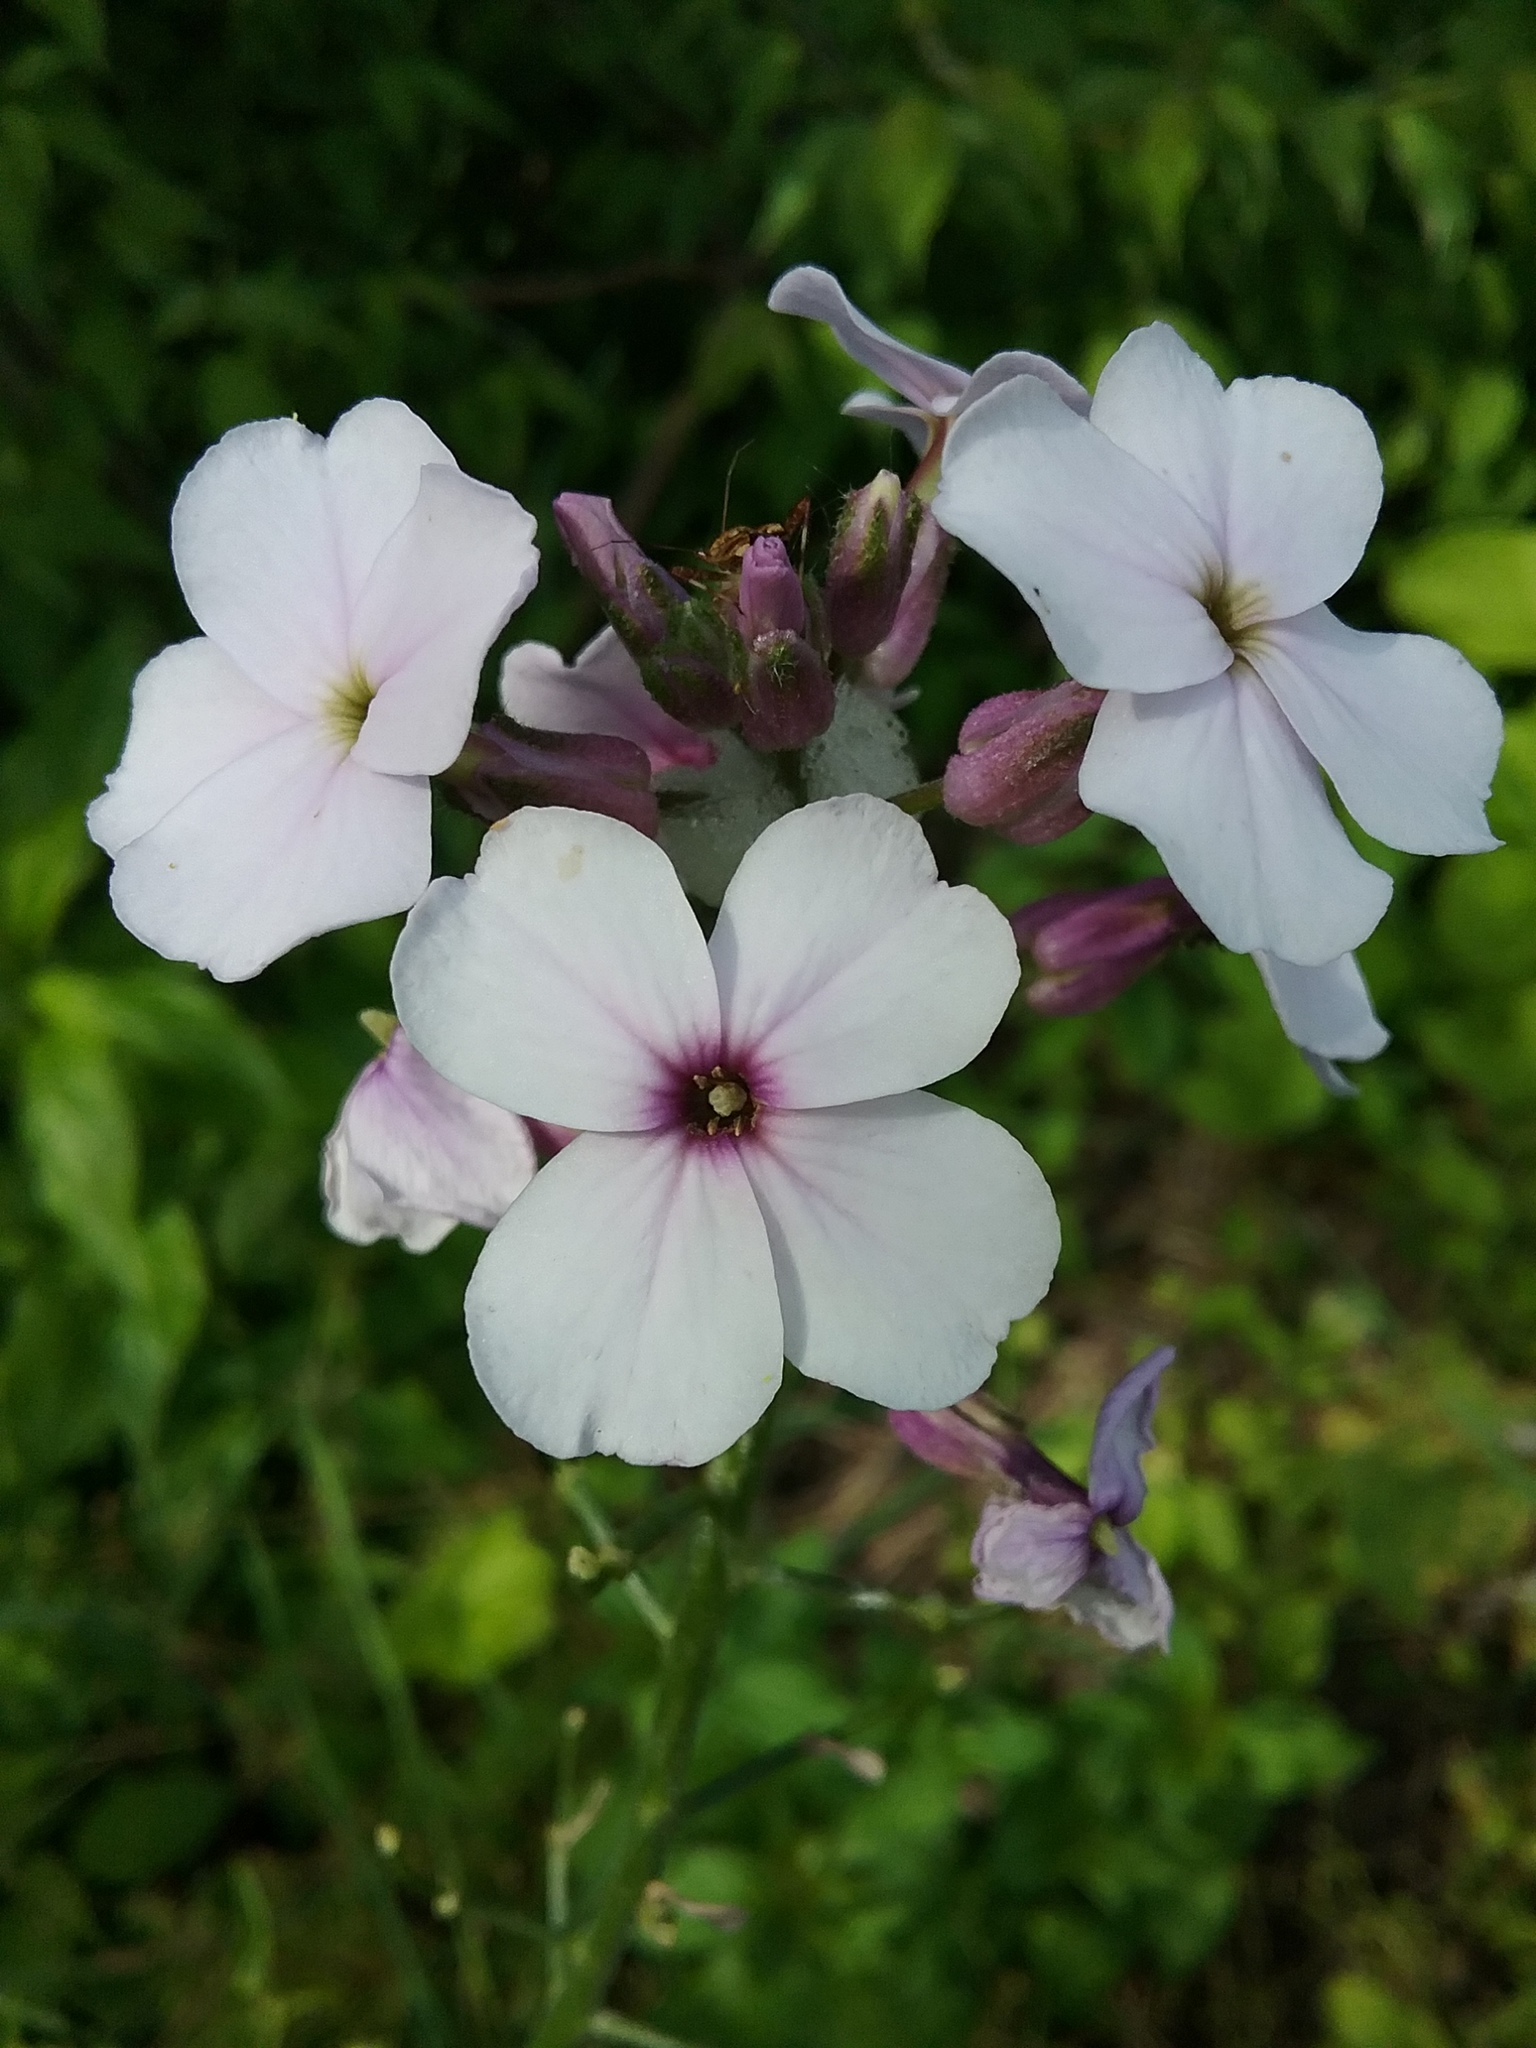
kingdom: Plantae
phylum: Tracheophyta
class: Magnoliopsida
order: Brassicales
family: Brassicaceae
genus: Hesperis
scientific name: Hesperis matronalis
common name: Dame's-violet
